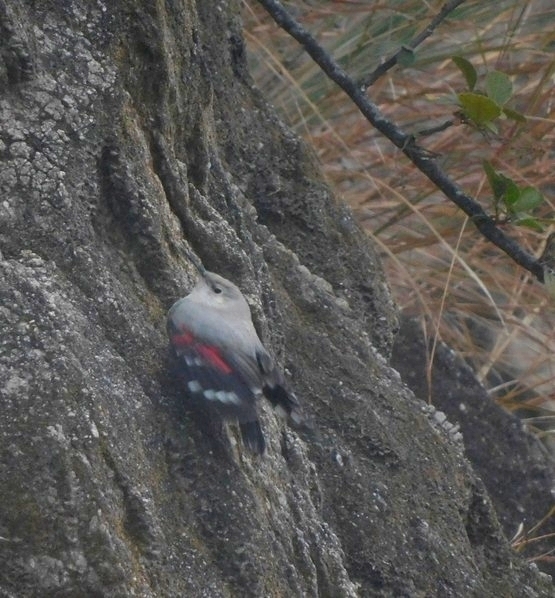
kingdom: Animalia
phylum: Chordata
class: Aves
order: Passeriformes
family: Tichodromidae
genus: Tichodroma
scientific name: Tichodroma muraria
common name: Wallcreeper
